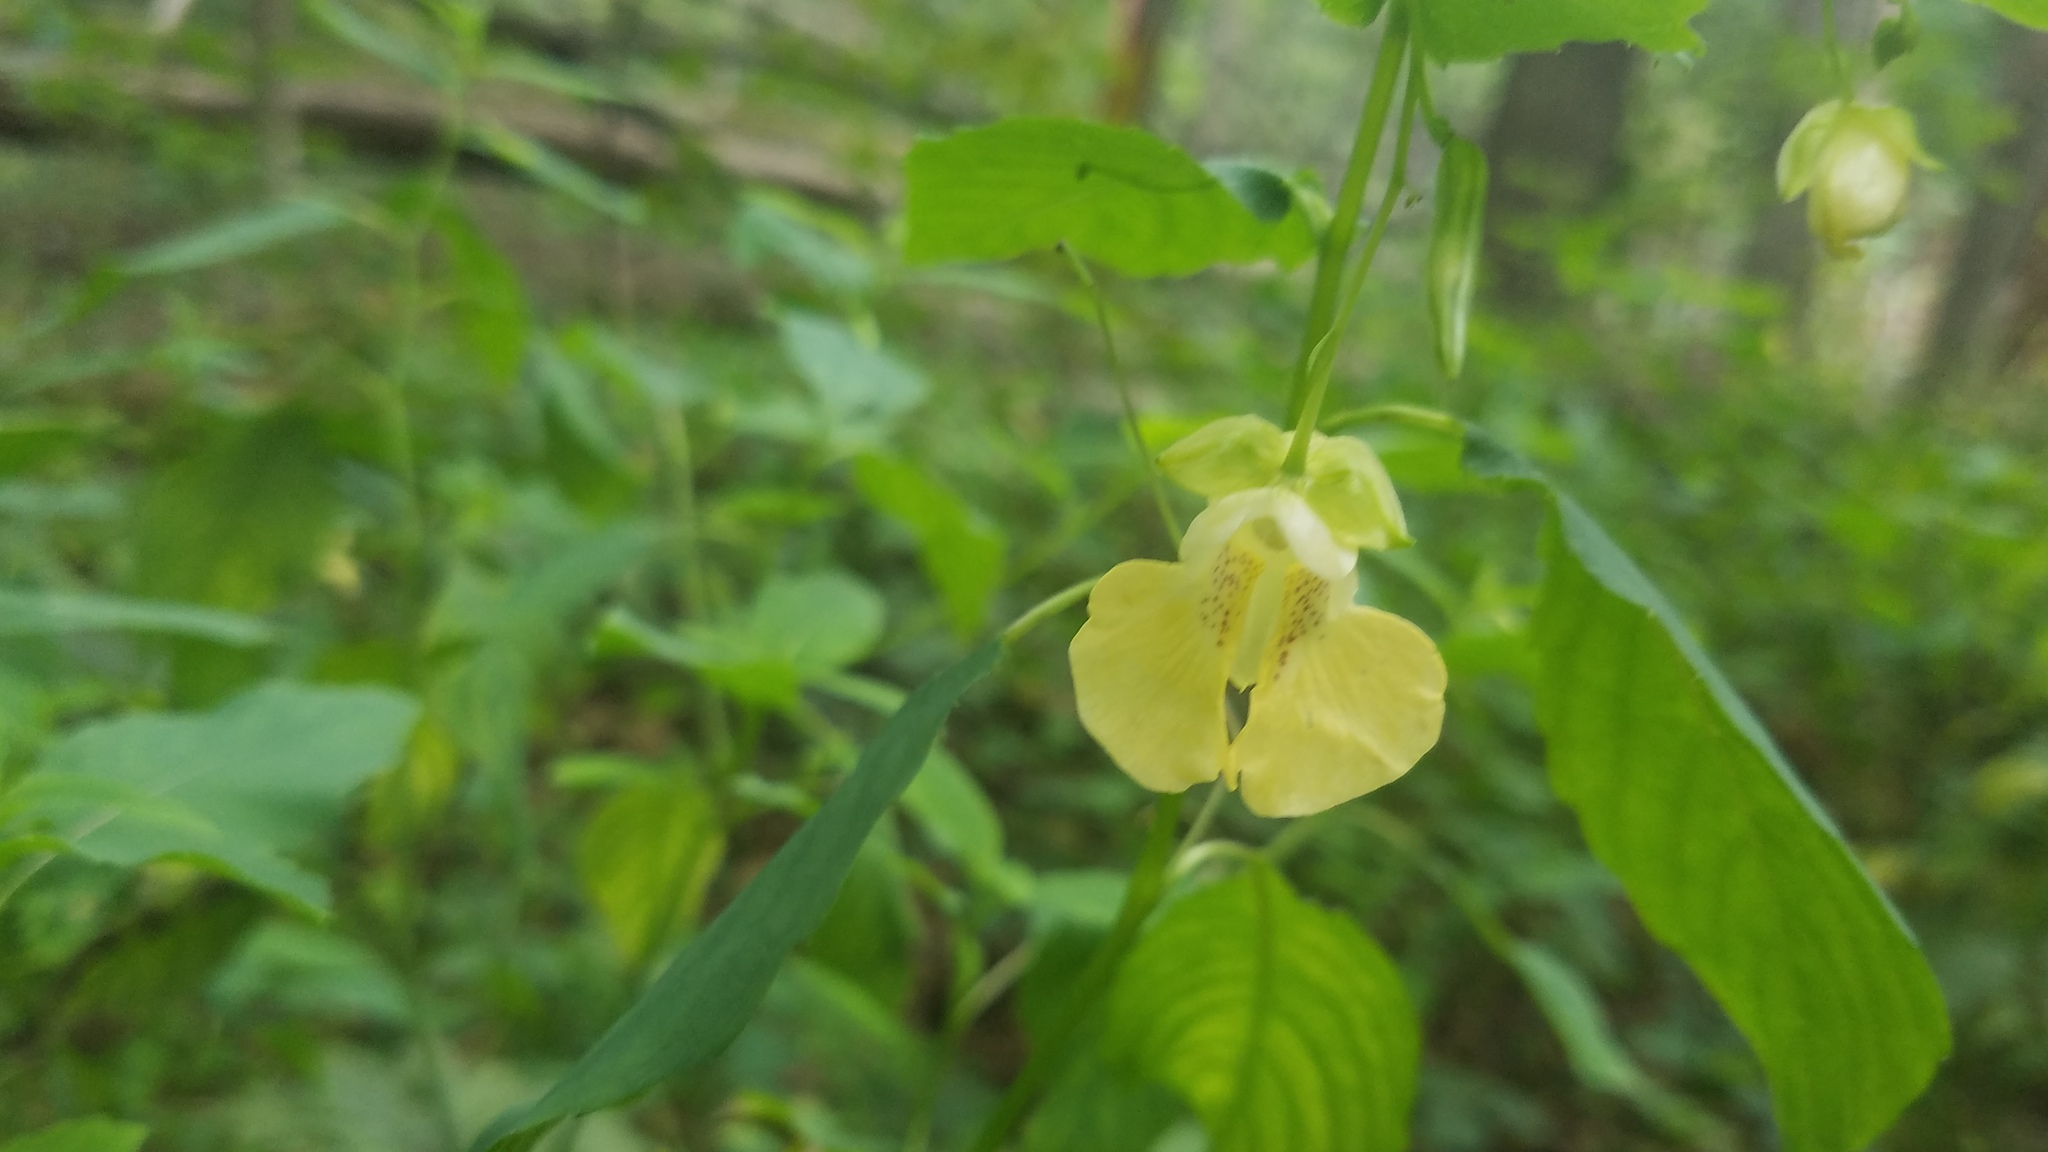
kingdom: Plantae
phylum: Tracheophyta
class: Magnoliopsida
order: Ericales
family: Balsaminaceae
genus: Impatiens
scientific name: Impatiens pallida
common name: Pale snapweed
